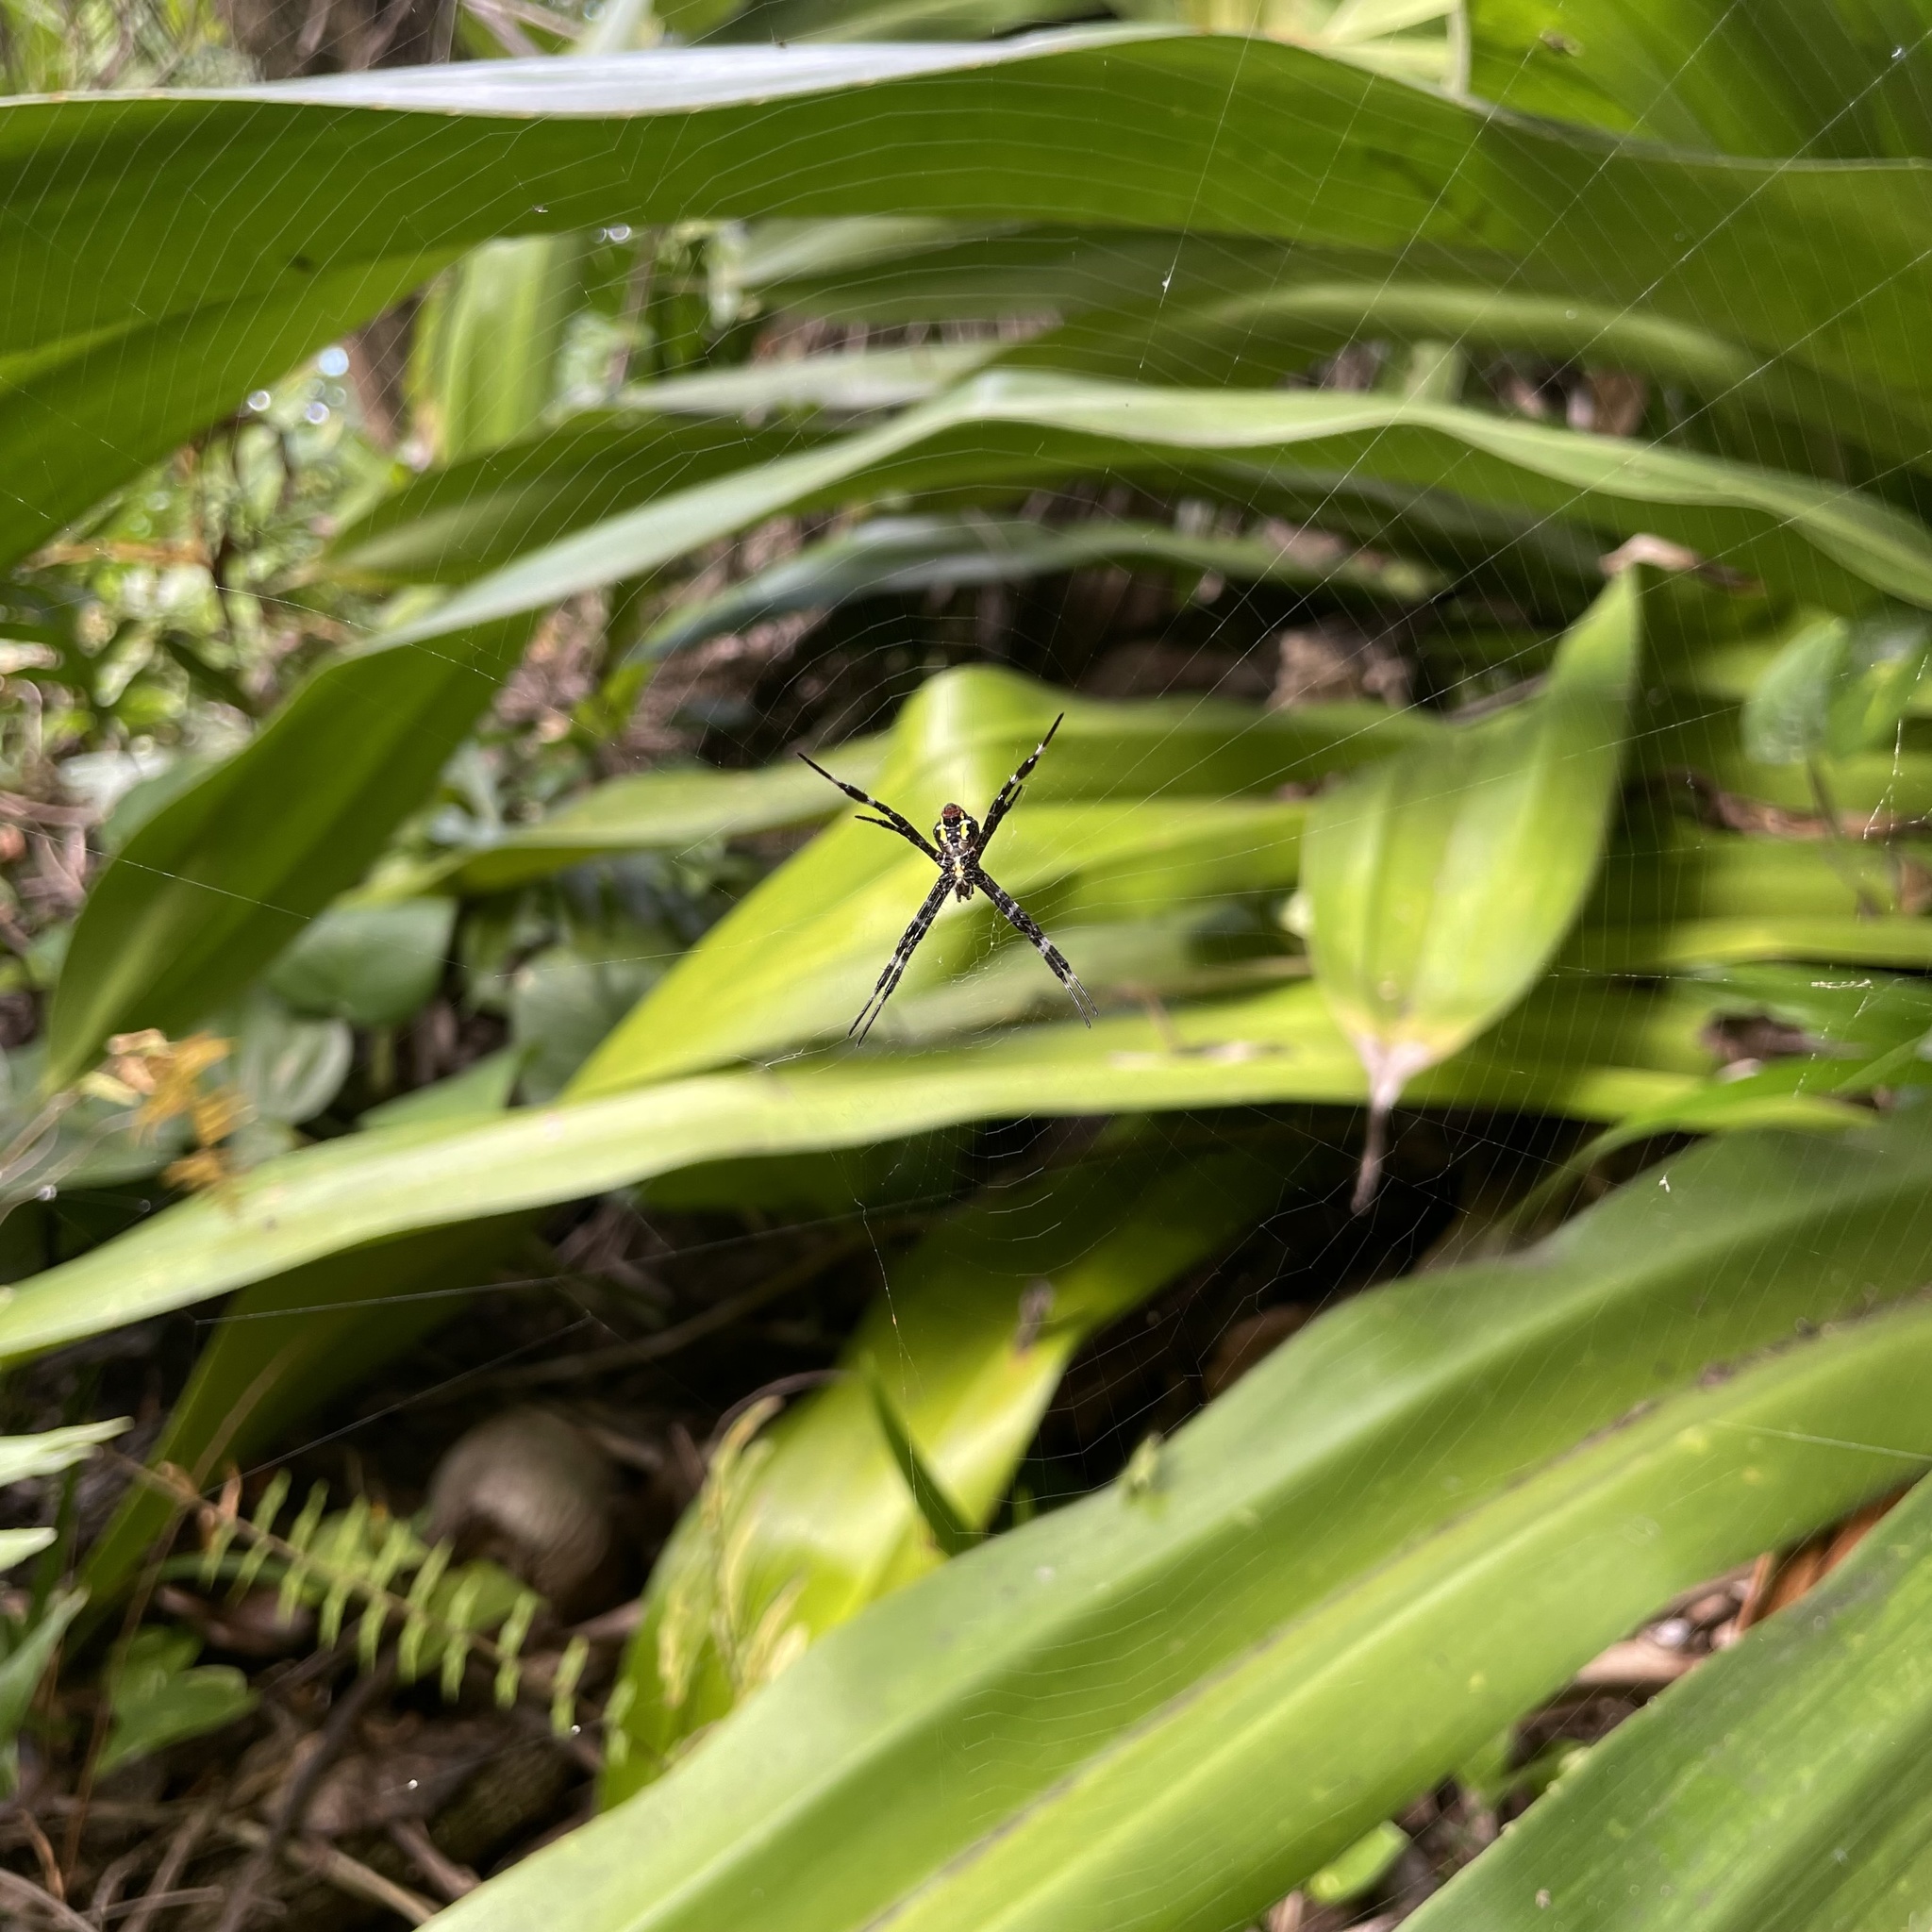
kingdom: Animalia
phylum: Arthropoda
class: Arachnida
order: Araneae
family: Araneidae
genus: Argiope
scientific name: Argiope appensa
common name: Garden spider
